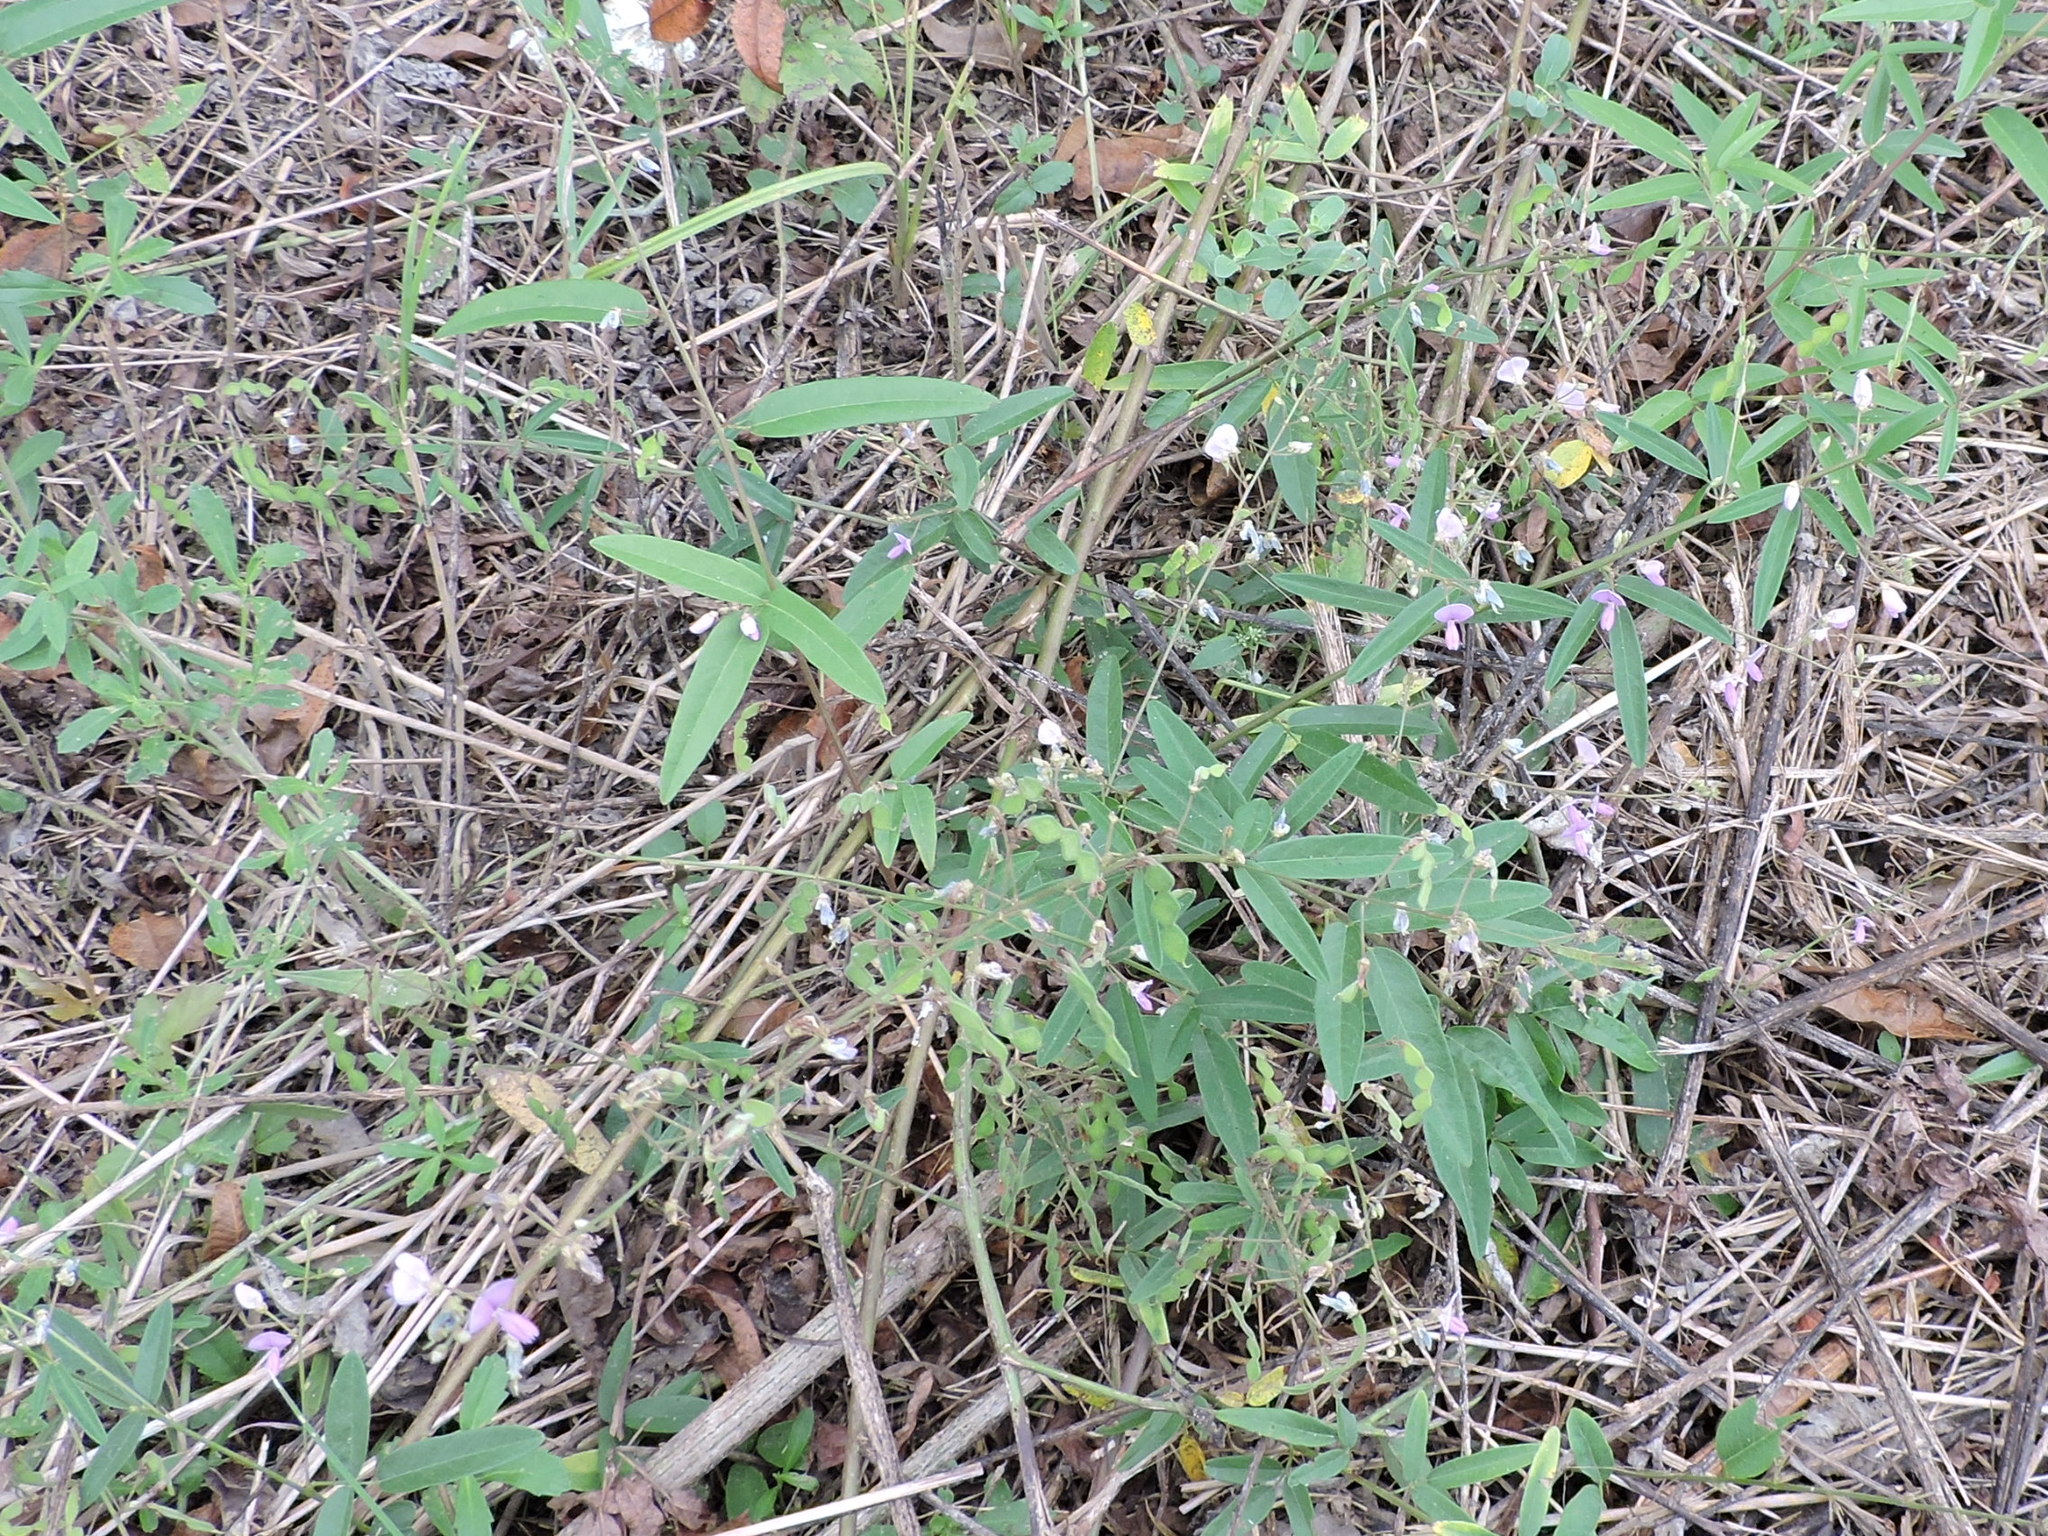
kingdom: Plantae
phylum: Tracheophyta
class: Magnoliopsida
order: Fabales
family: Fabaceae
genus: Desmodium
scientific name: Desmodium paniculatum
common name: Panicled tick-clover
